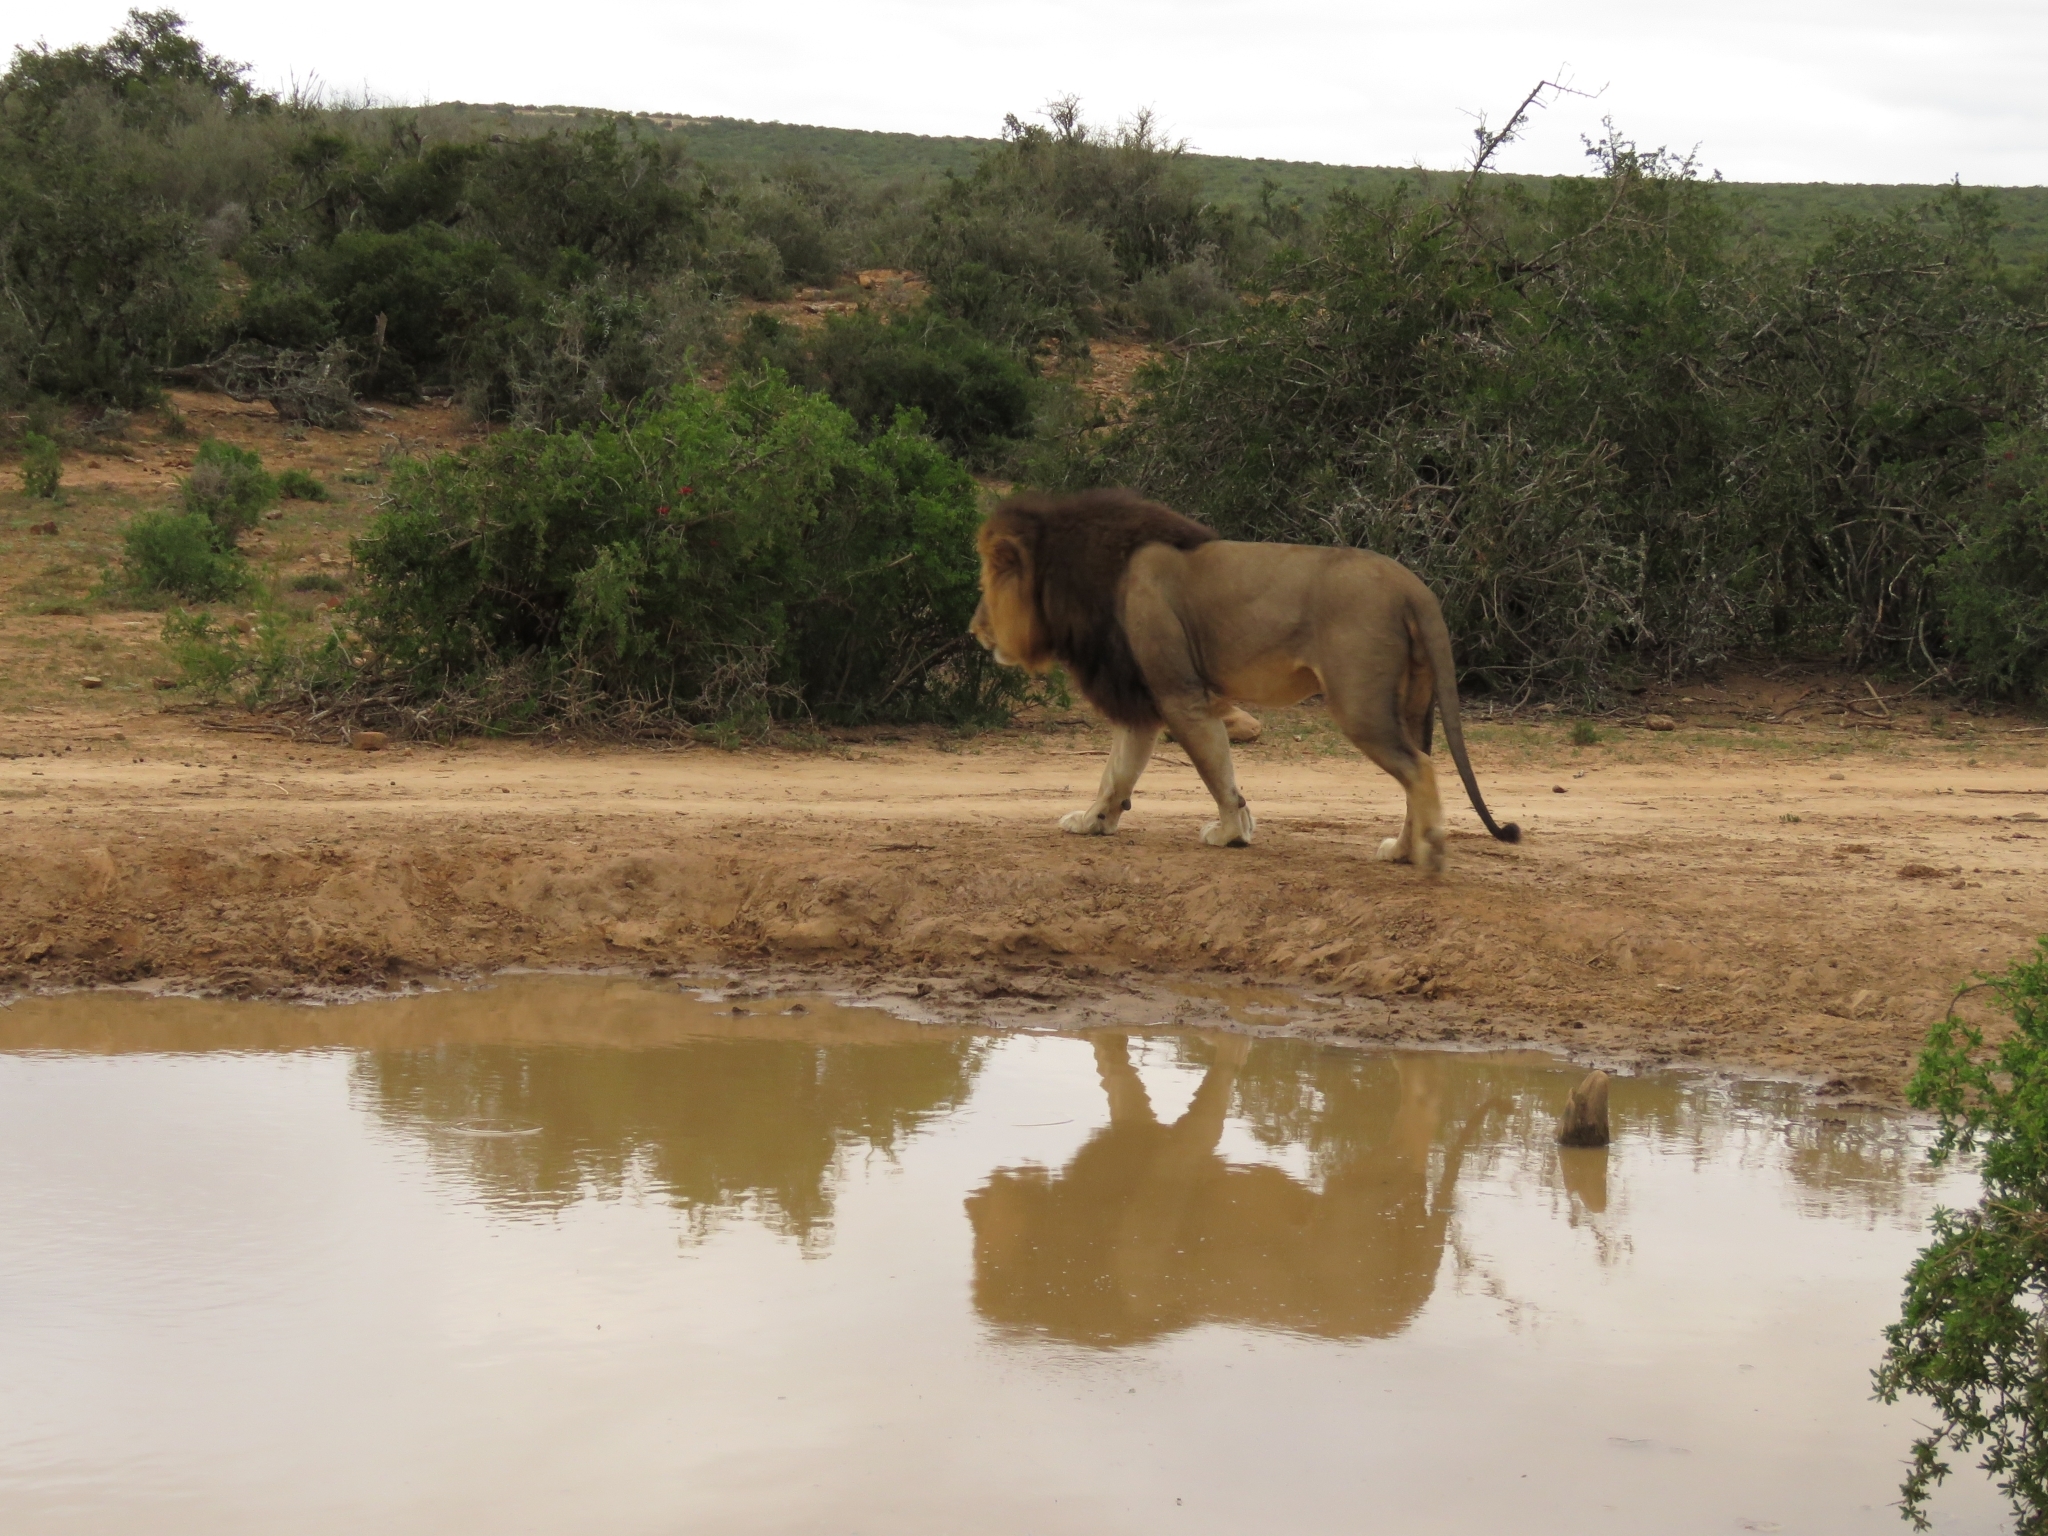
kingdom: Animalia
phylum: Chordata
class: Mammalia
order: Carnivora
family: Felidae
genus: Panthera
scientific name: Panthera leo
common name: Lion
